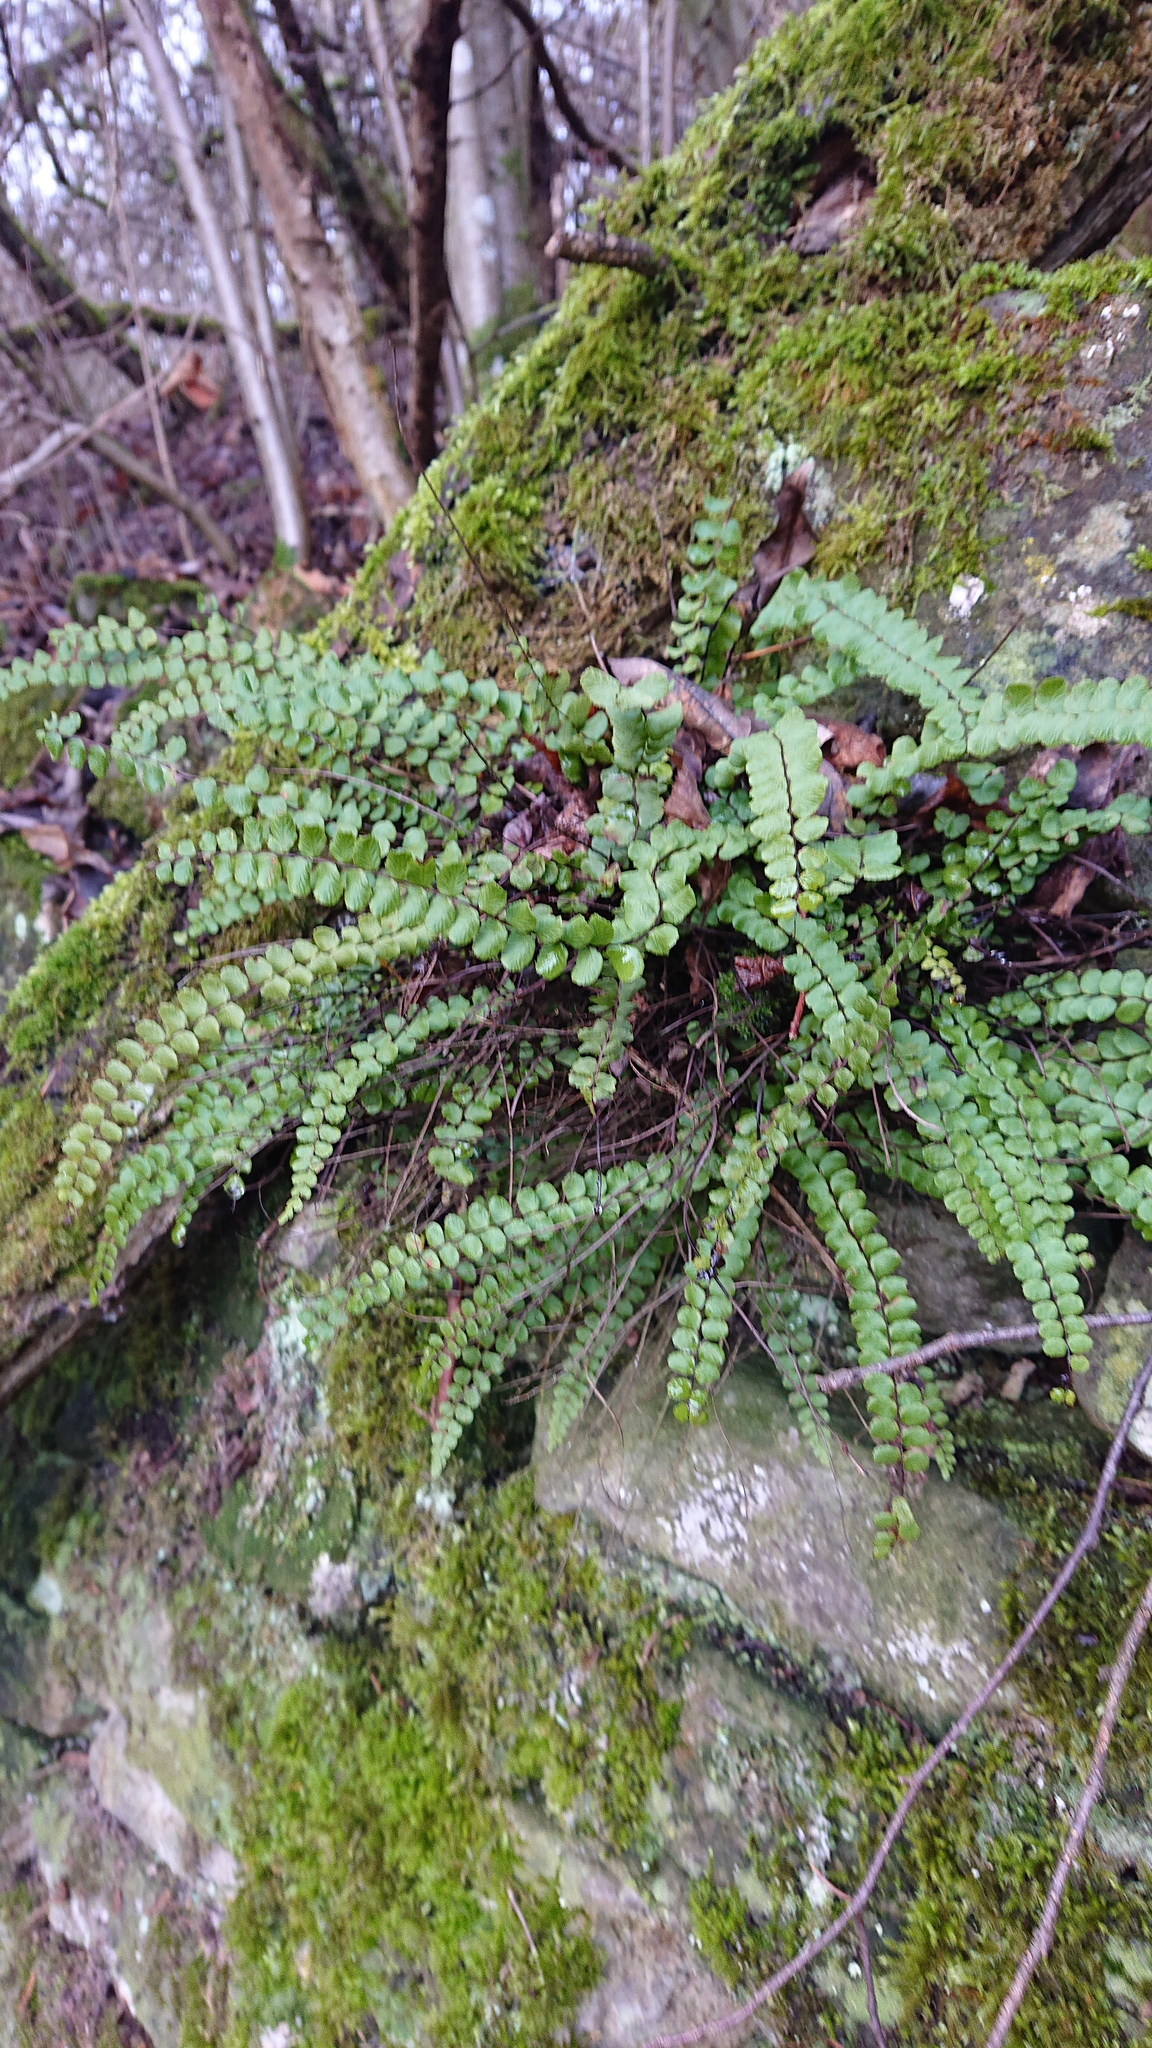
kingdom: Plantae
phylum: Tracheophyta
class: Polypodiopsida
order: Polypodiales
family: Aspleniaceae
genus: Asplenium
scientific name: Asplenium trichomanes
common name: Maidenhair spleenwort
